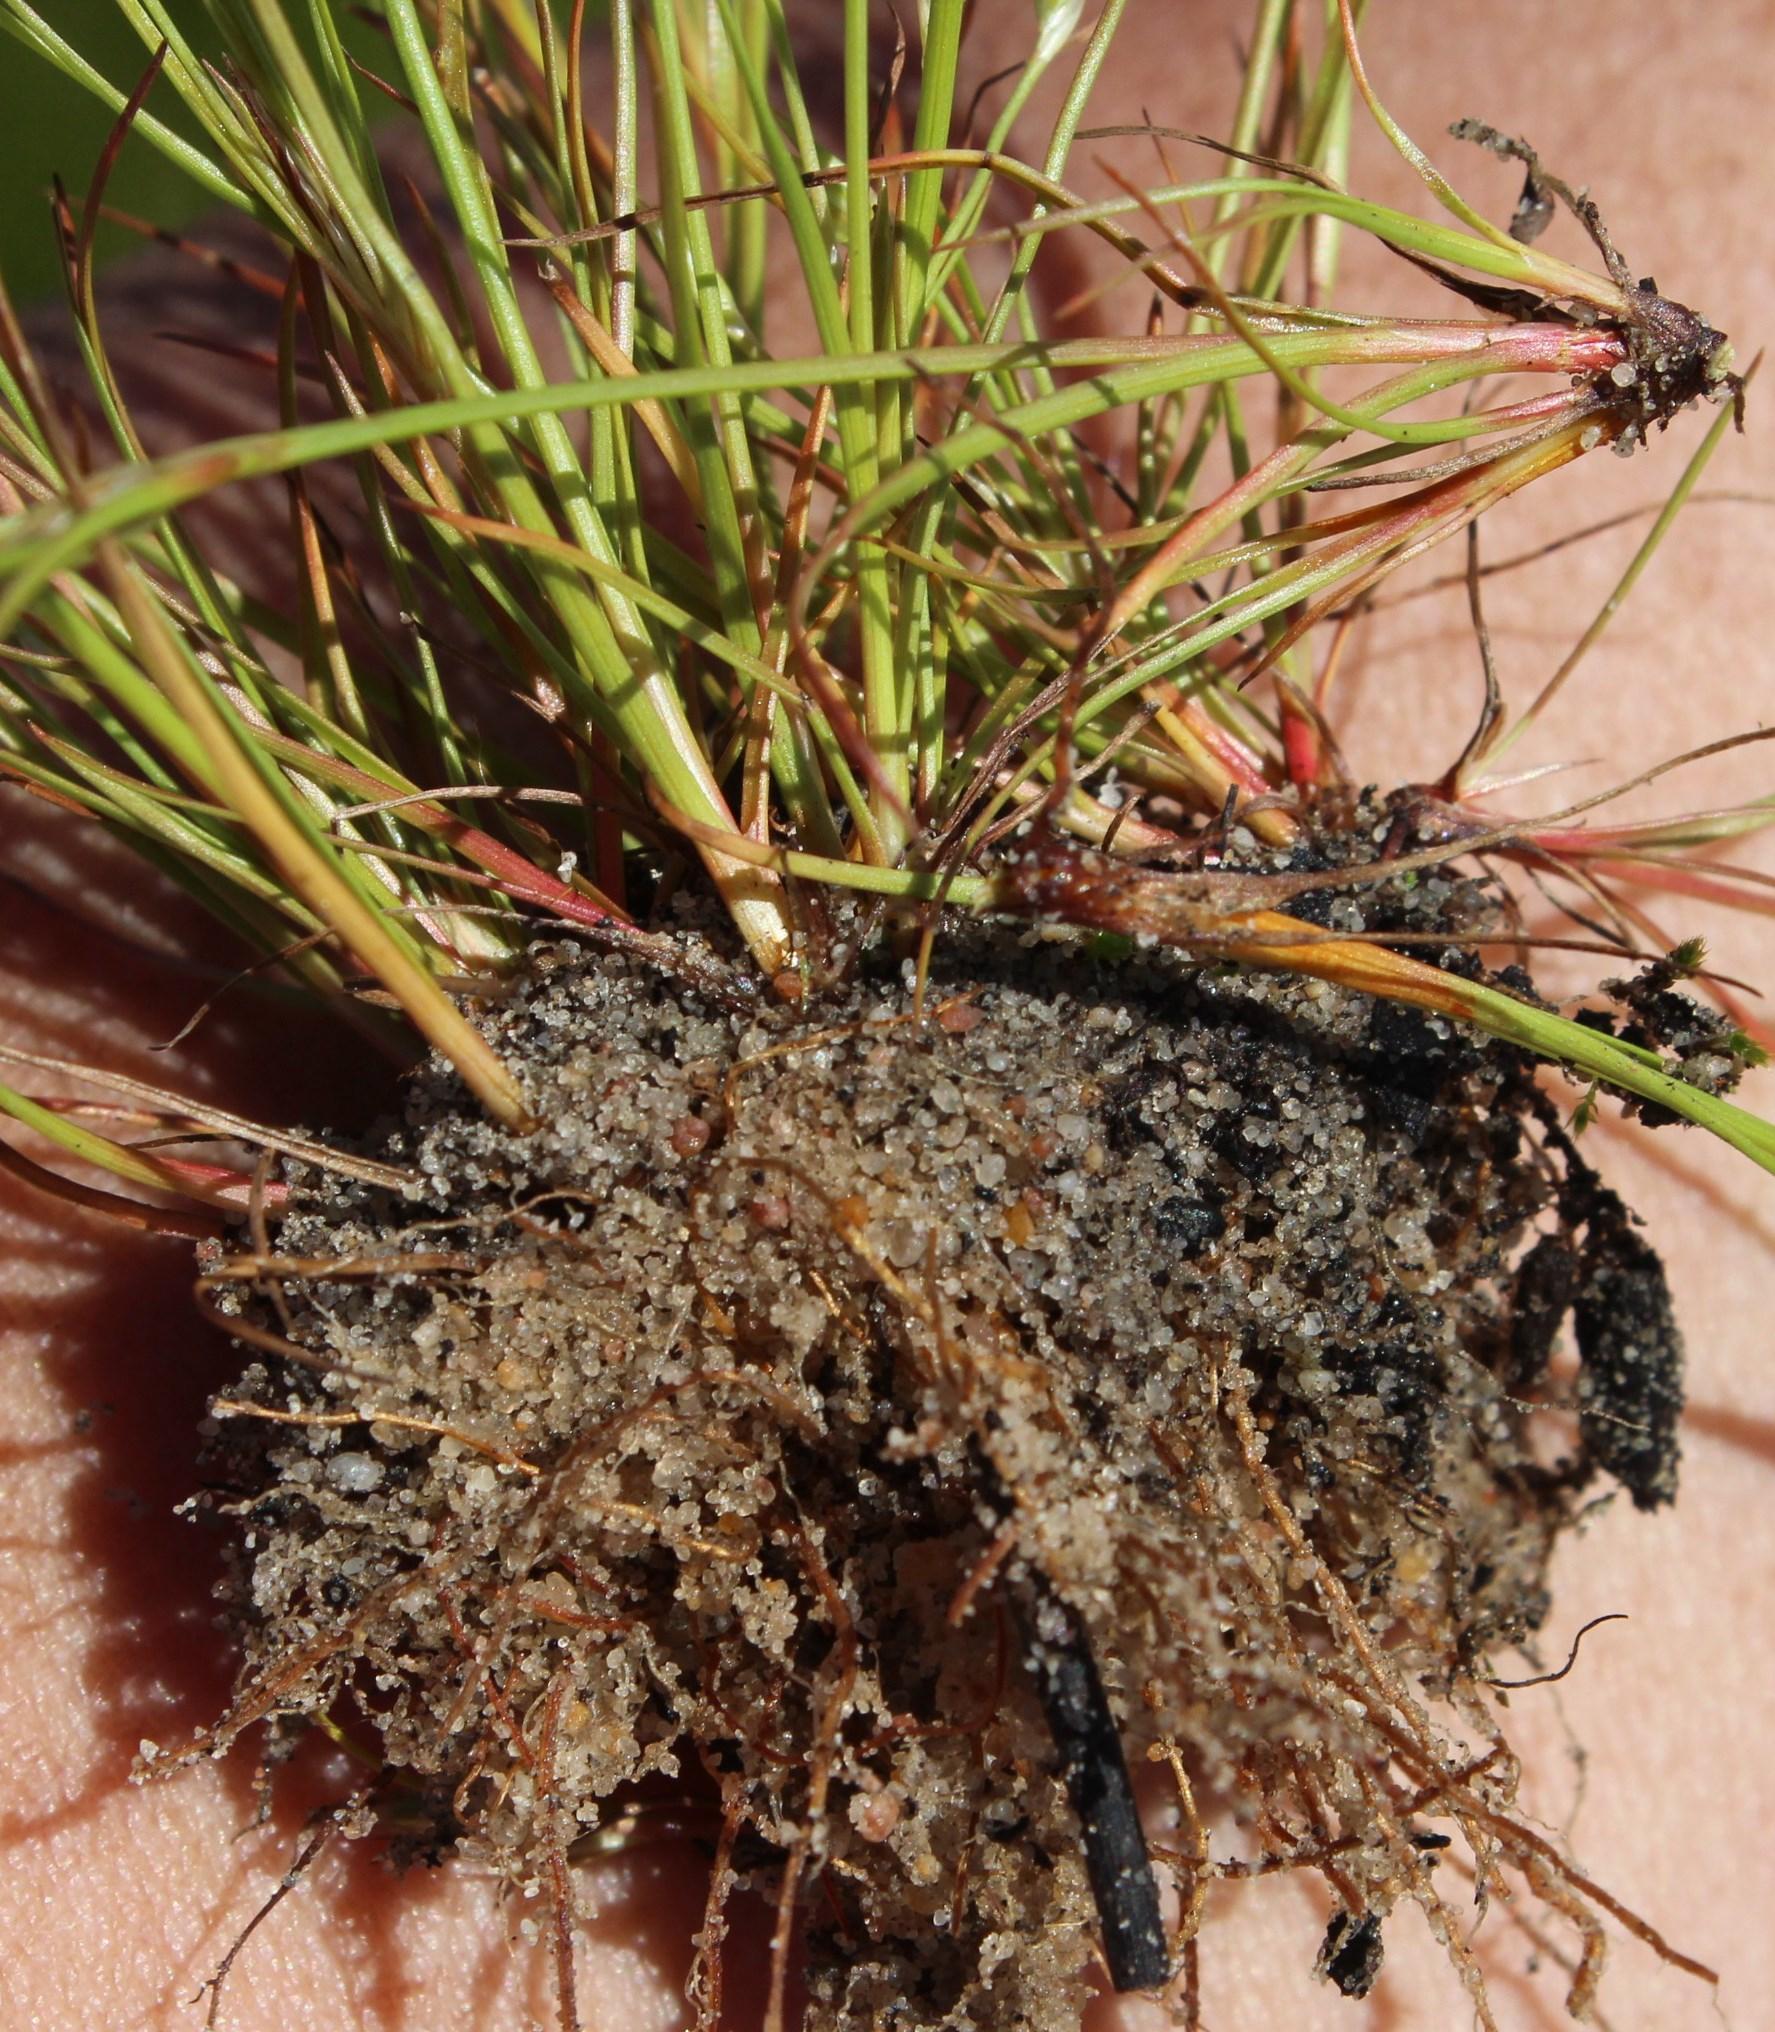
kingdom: Plantae
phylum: Tracheophyta
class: Liliopsida
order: Poales
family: Cyperaceae
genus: Trianoptiles
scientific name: Trianoptiles capensis
